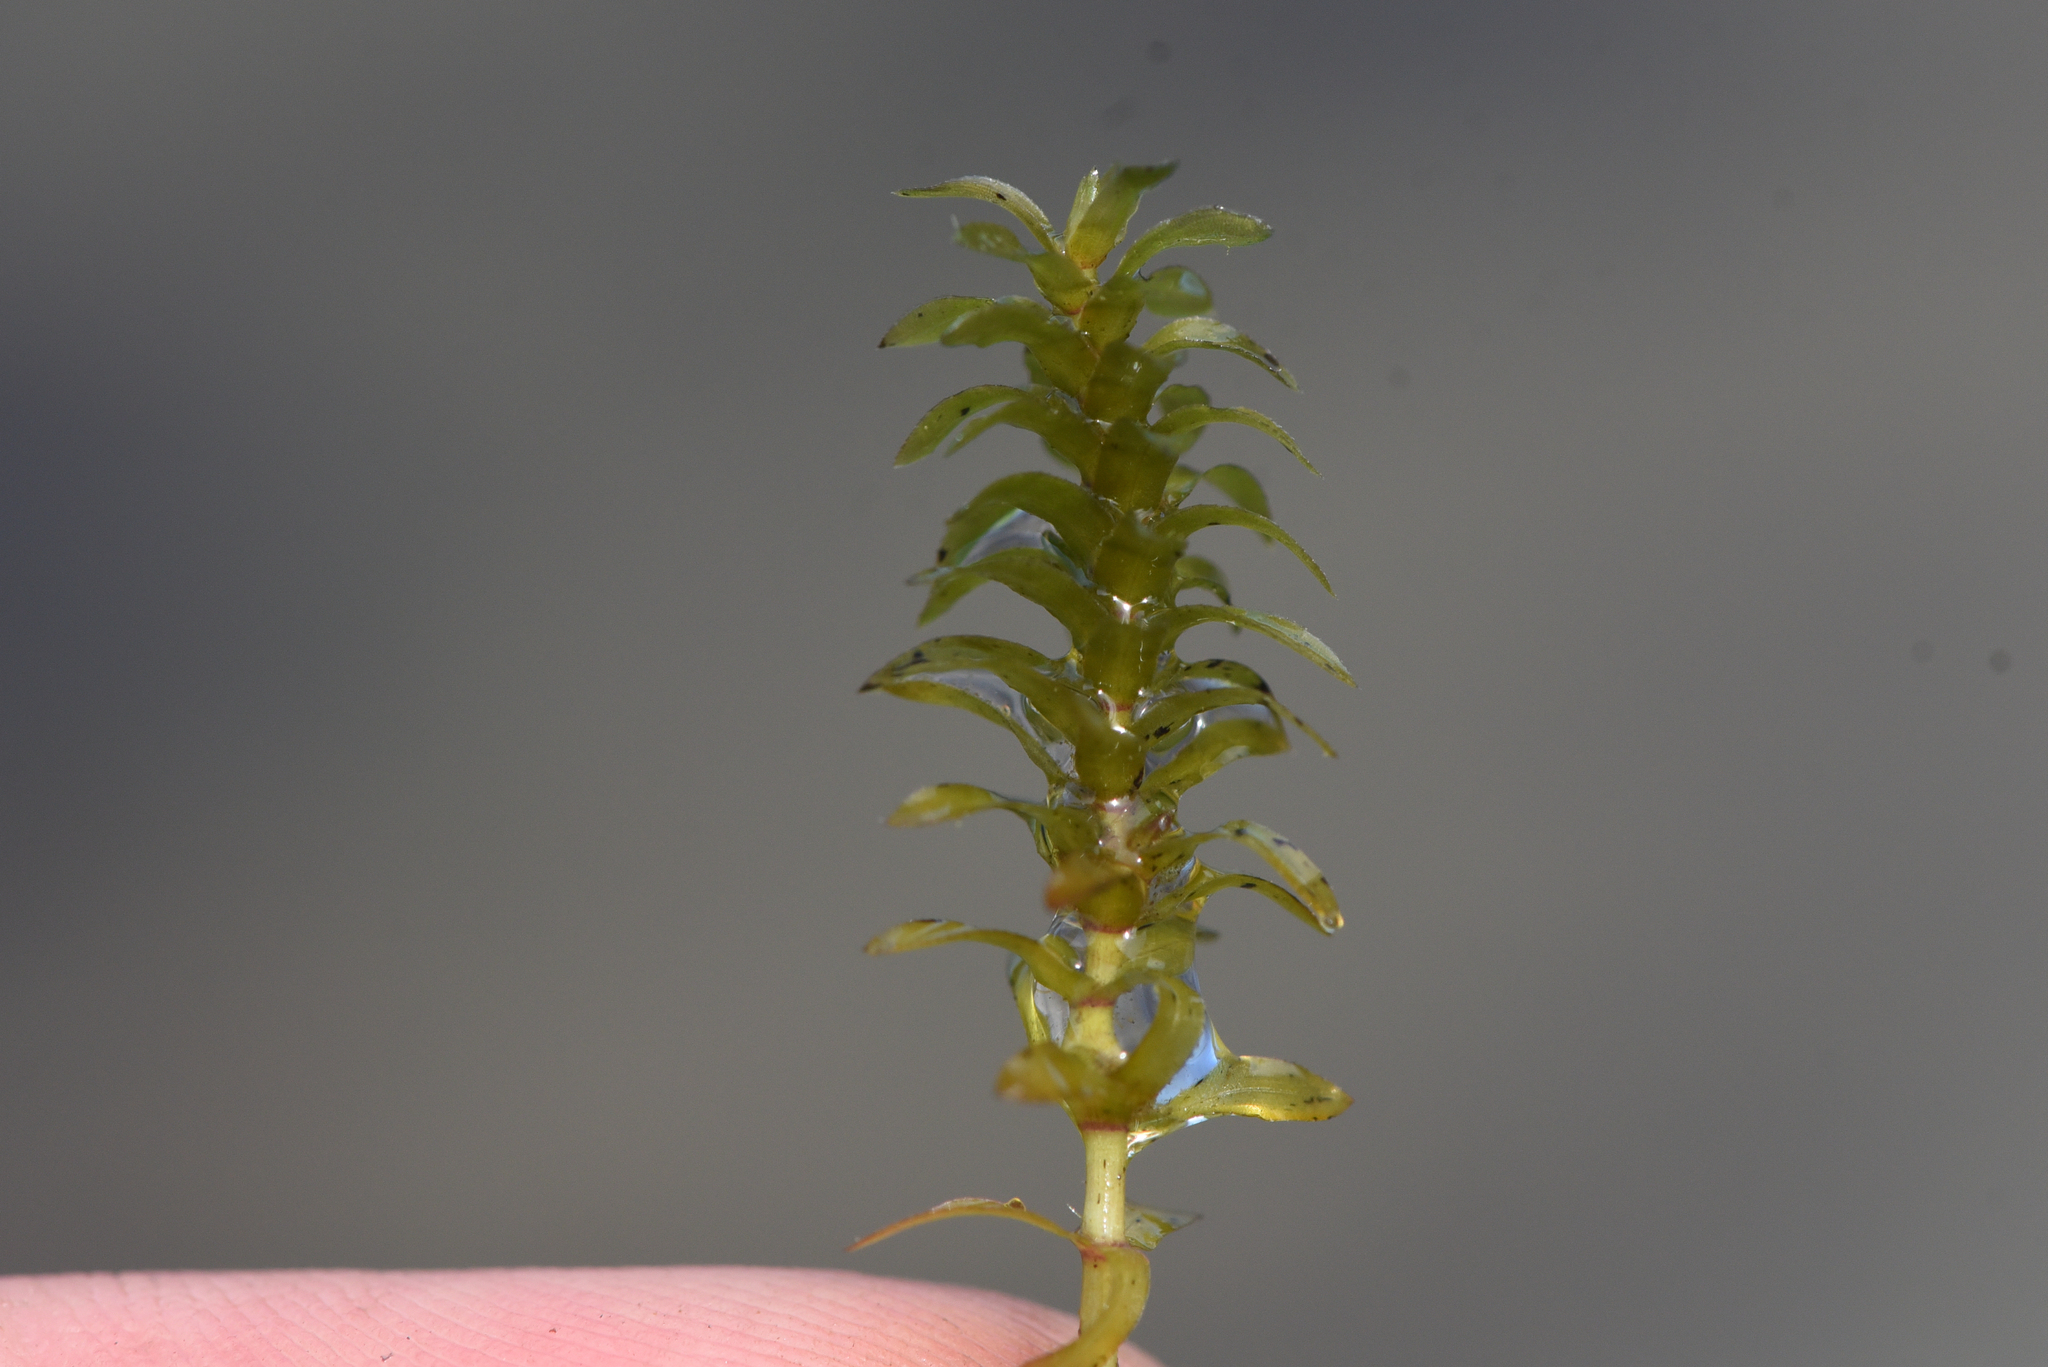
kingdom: Plantae
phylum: Tracheophyta
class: Liliopsida
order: Alismatales
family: Hydrocharitaceae
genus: Elodea
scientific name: Elodea canadensis
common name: Canadian waterweed
